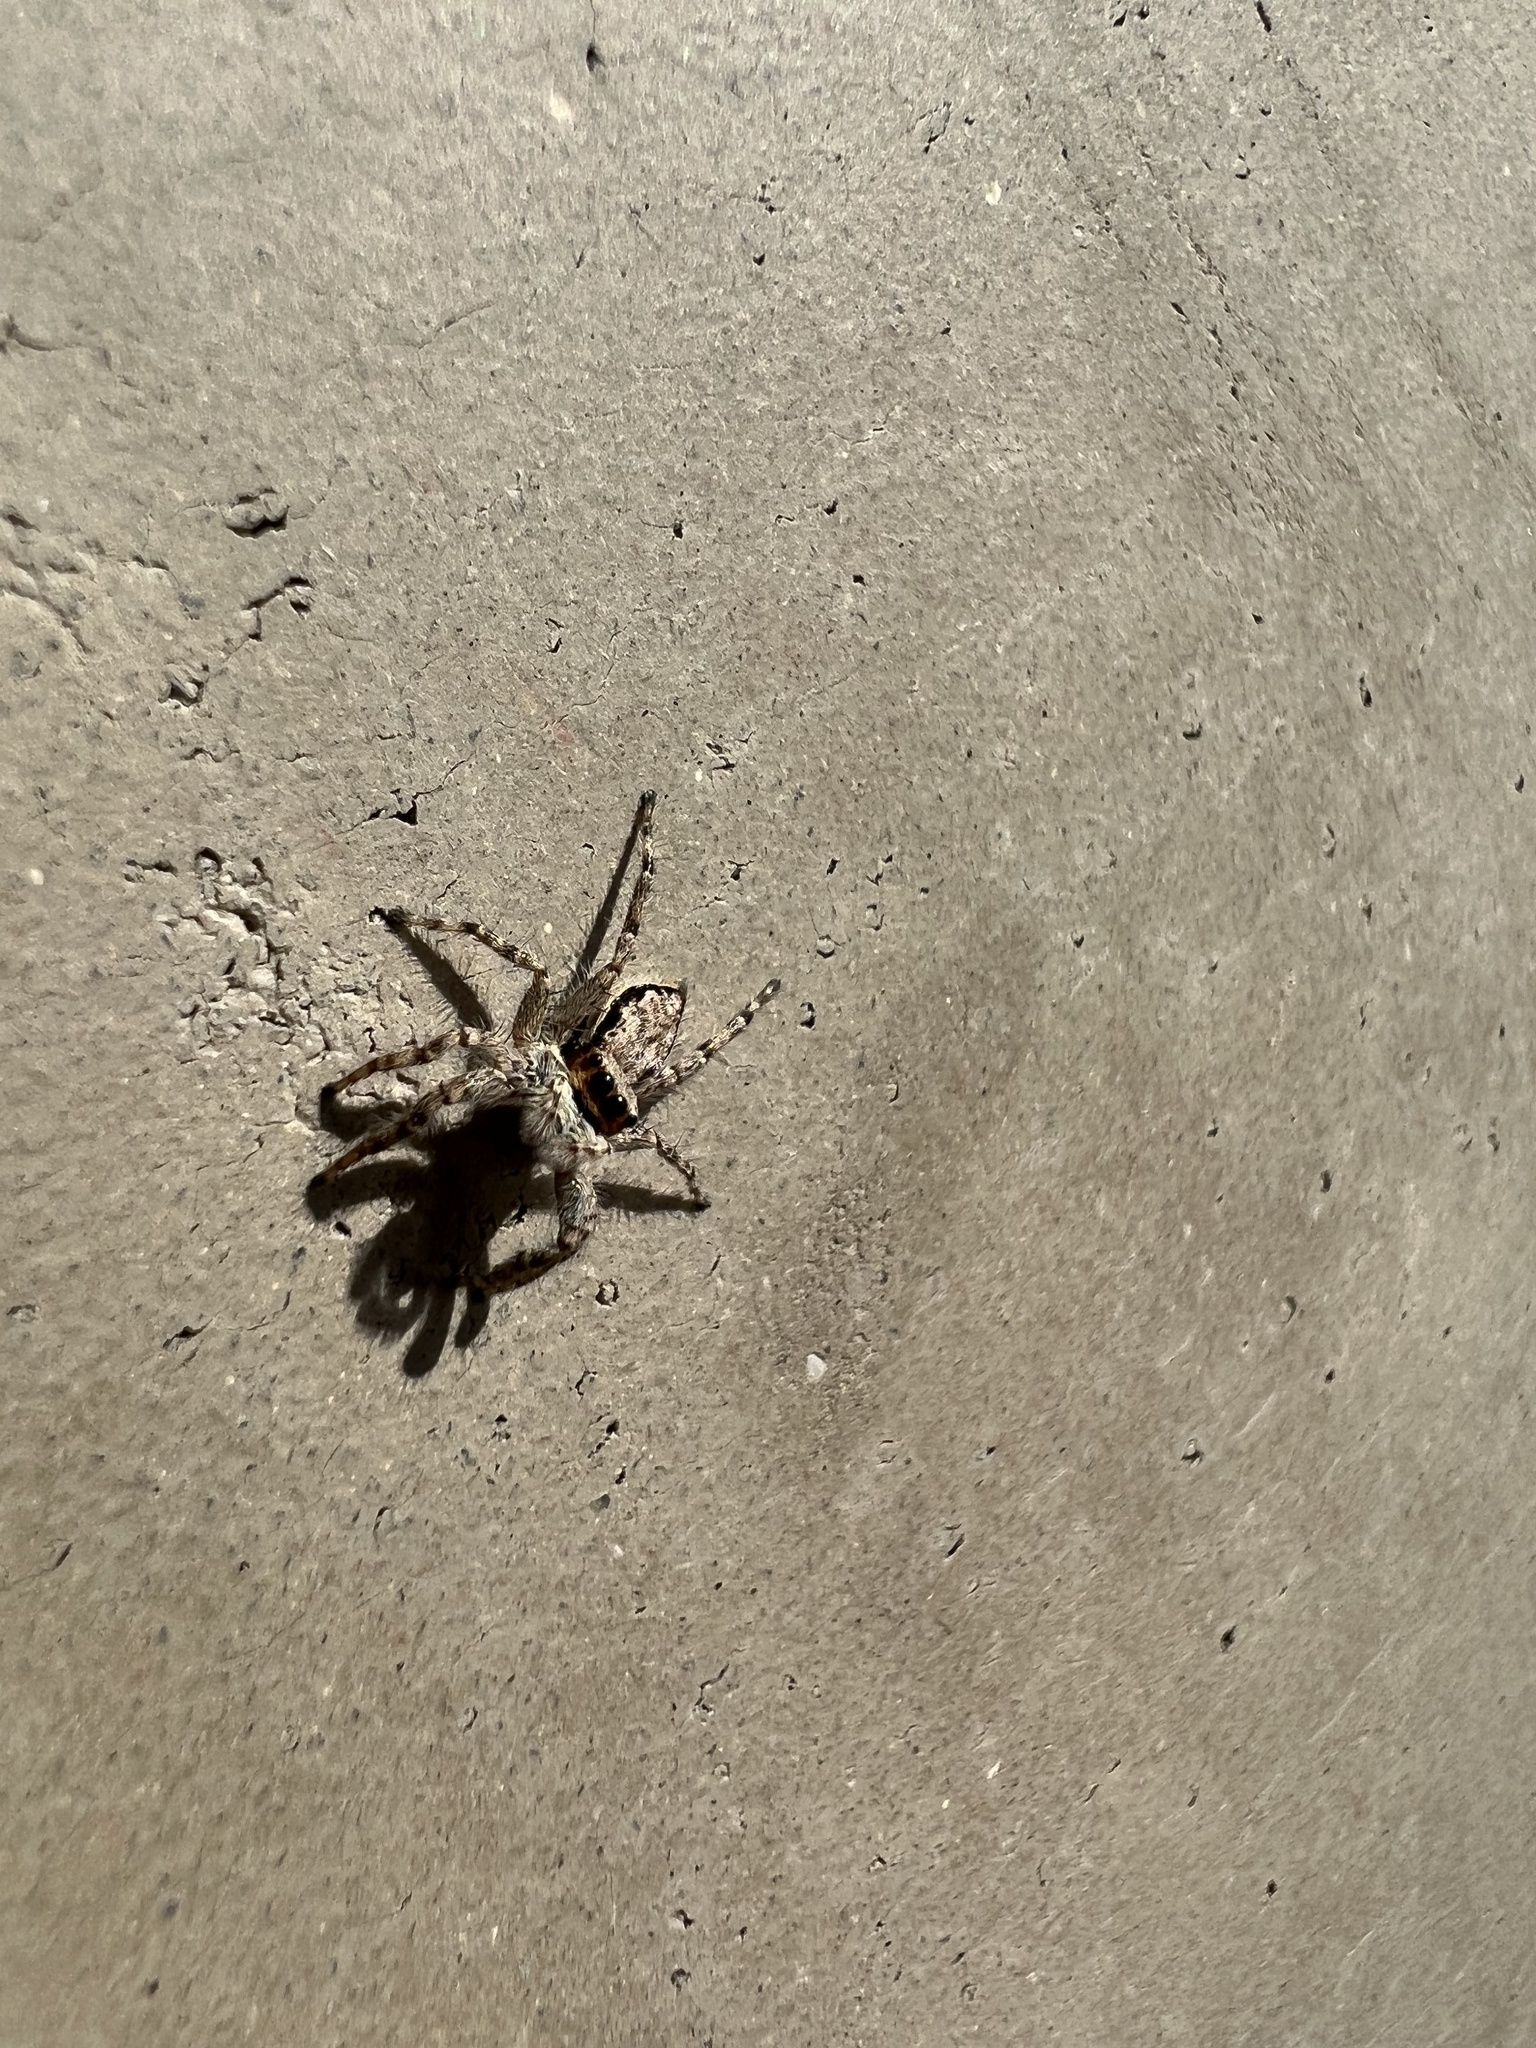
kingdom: Animalia
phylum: Arthropoda
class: Arachnida
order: Araneae
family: Salticidae
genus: Menemerus
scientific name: Menemerus bivittatus
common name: Gray wall jumper
